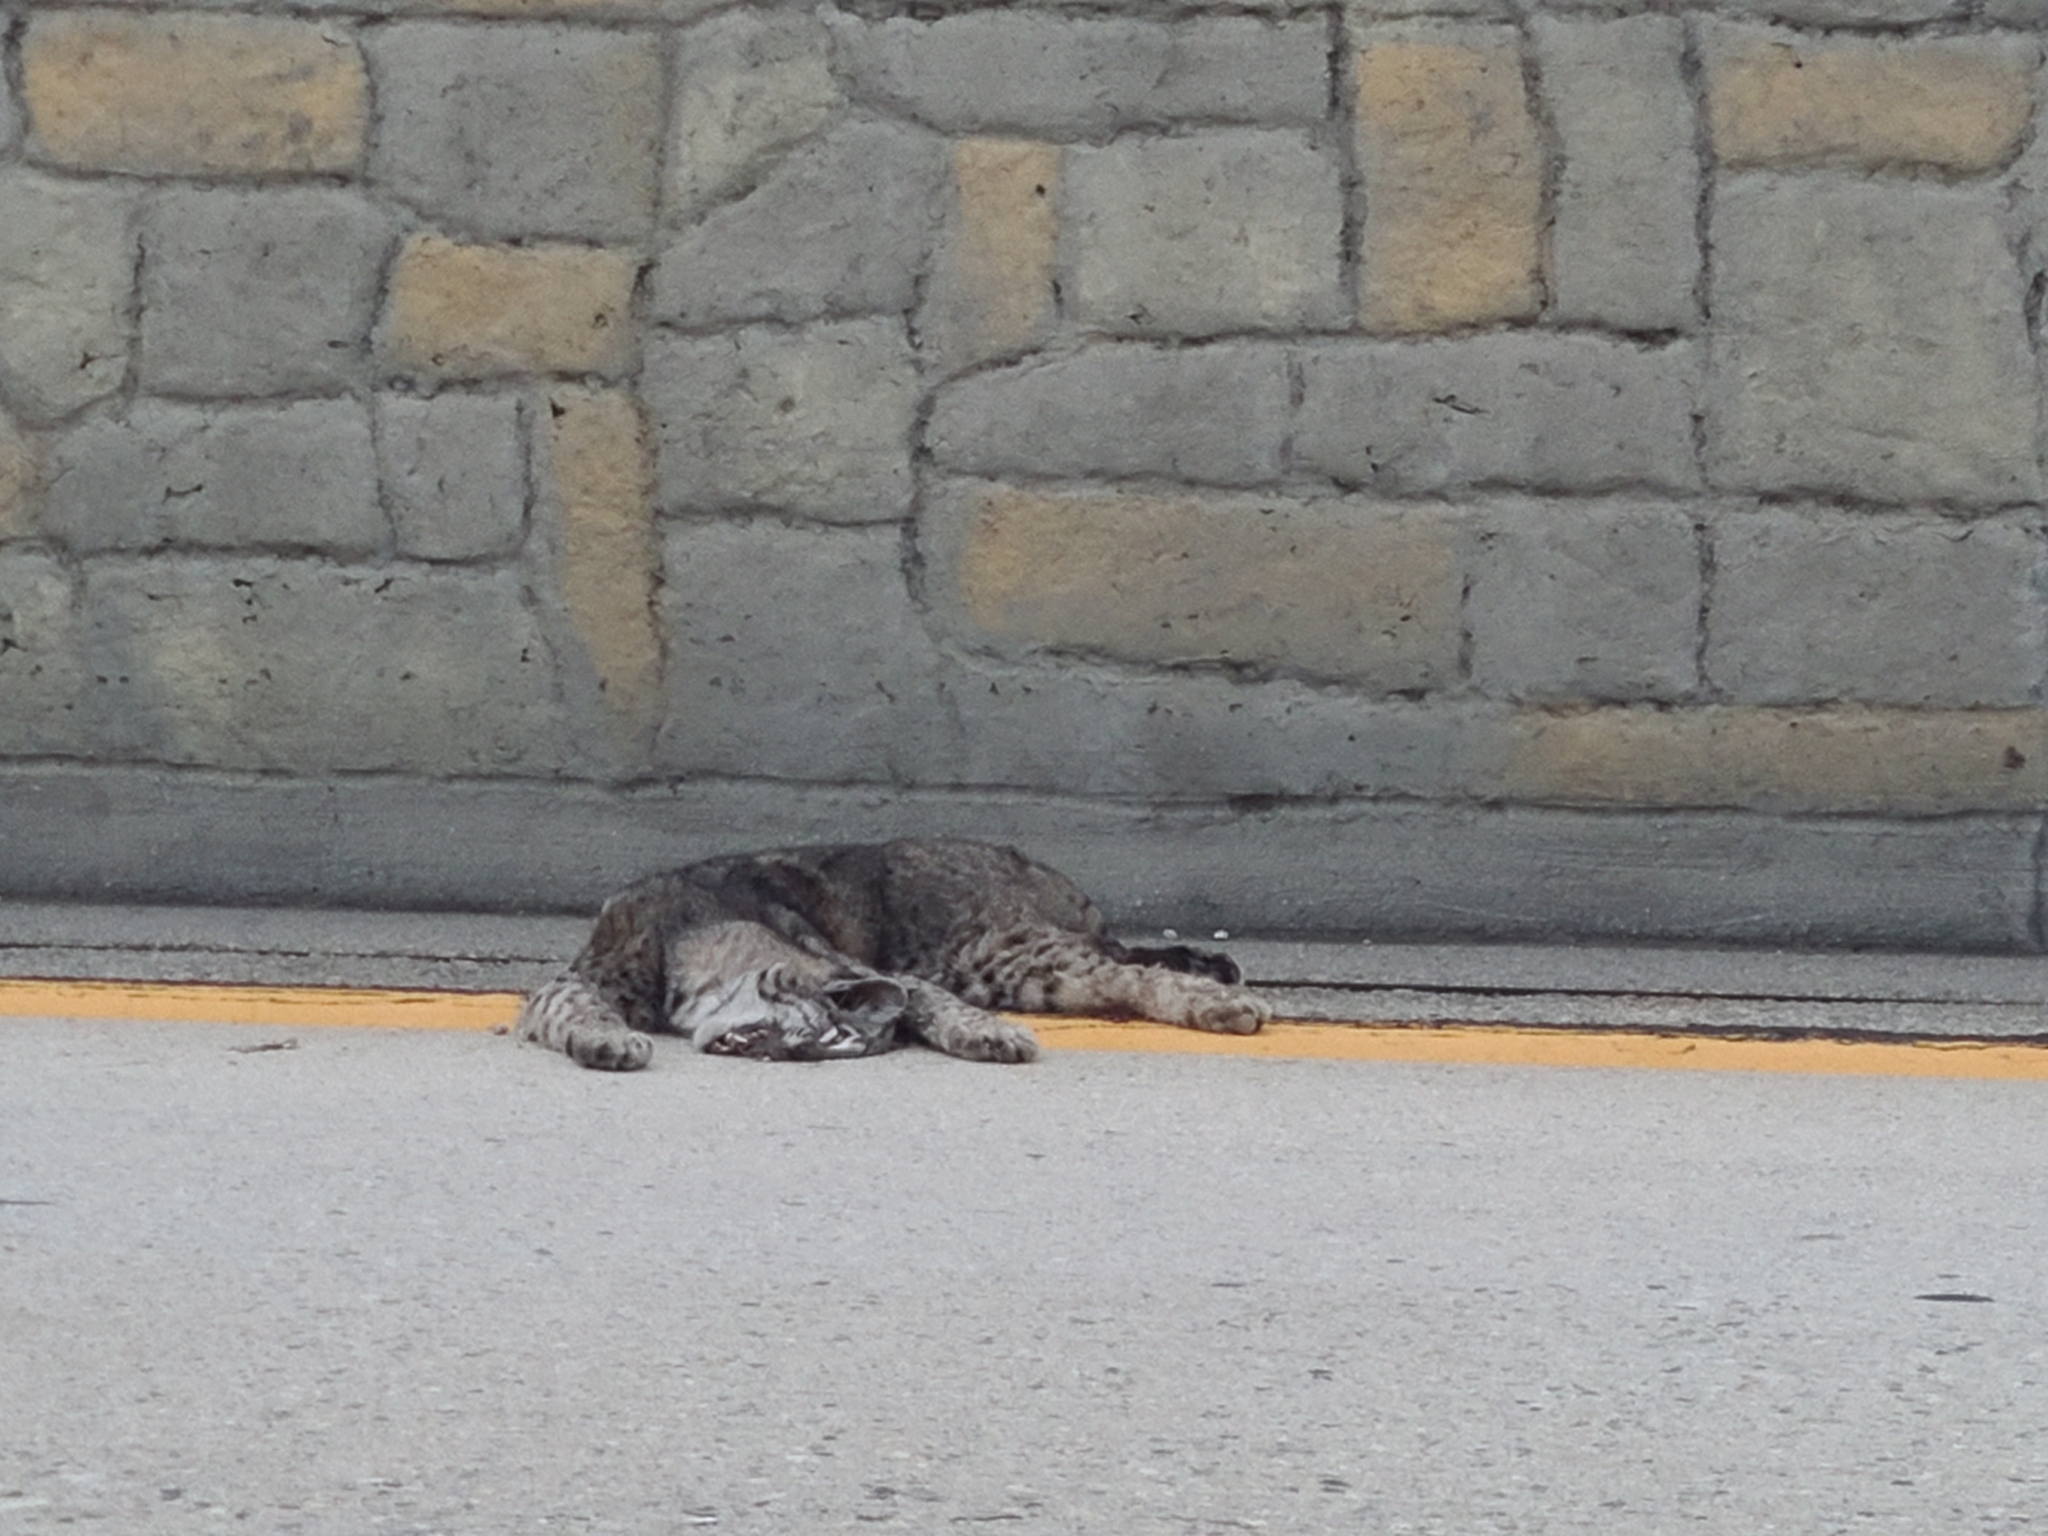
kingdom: Animalia
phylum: Chordata
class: Mammalia
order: Carnivora
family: Felidae
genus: Lynx
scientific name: Lynx rufus
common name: Bobcat
